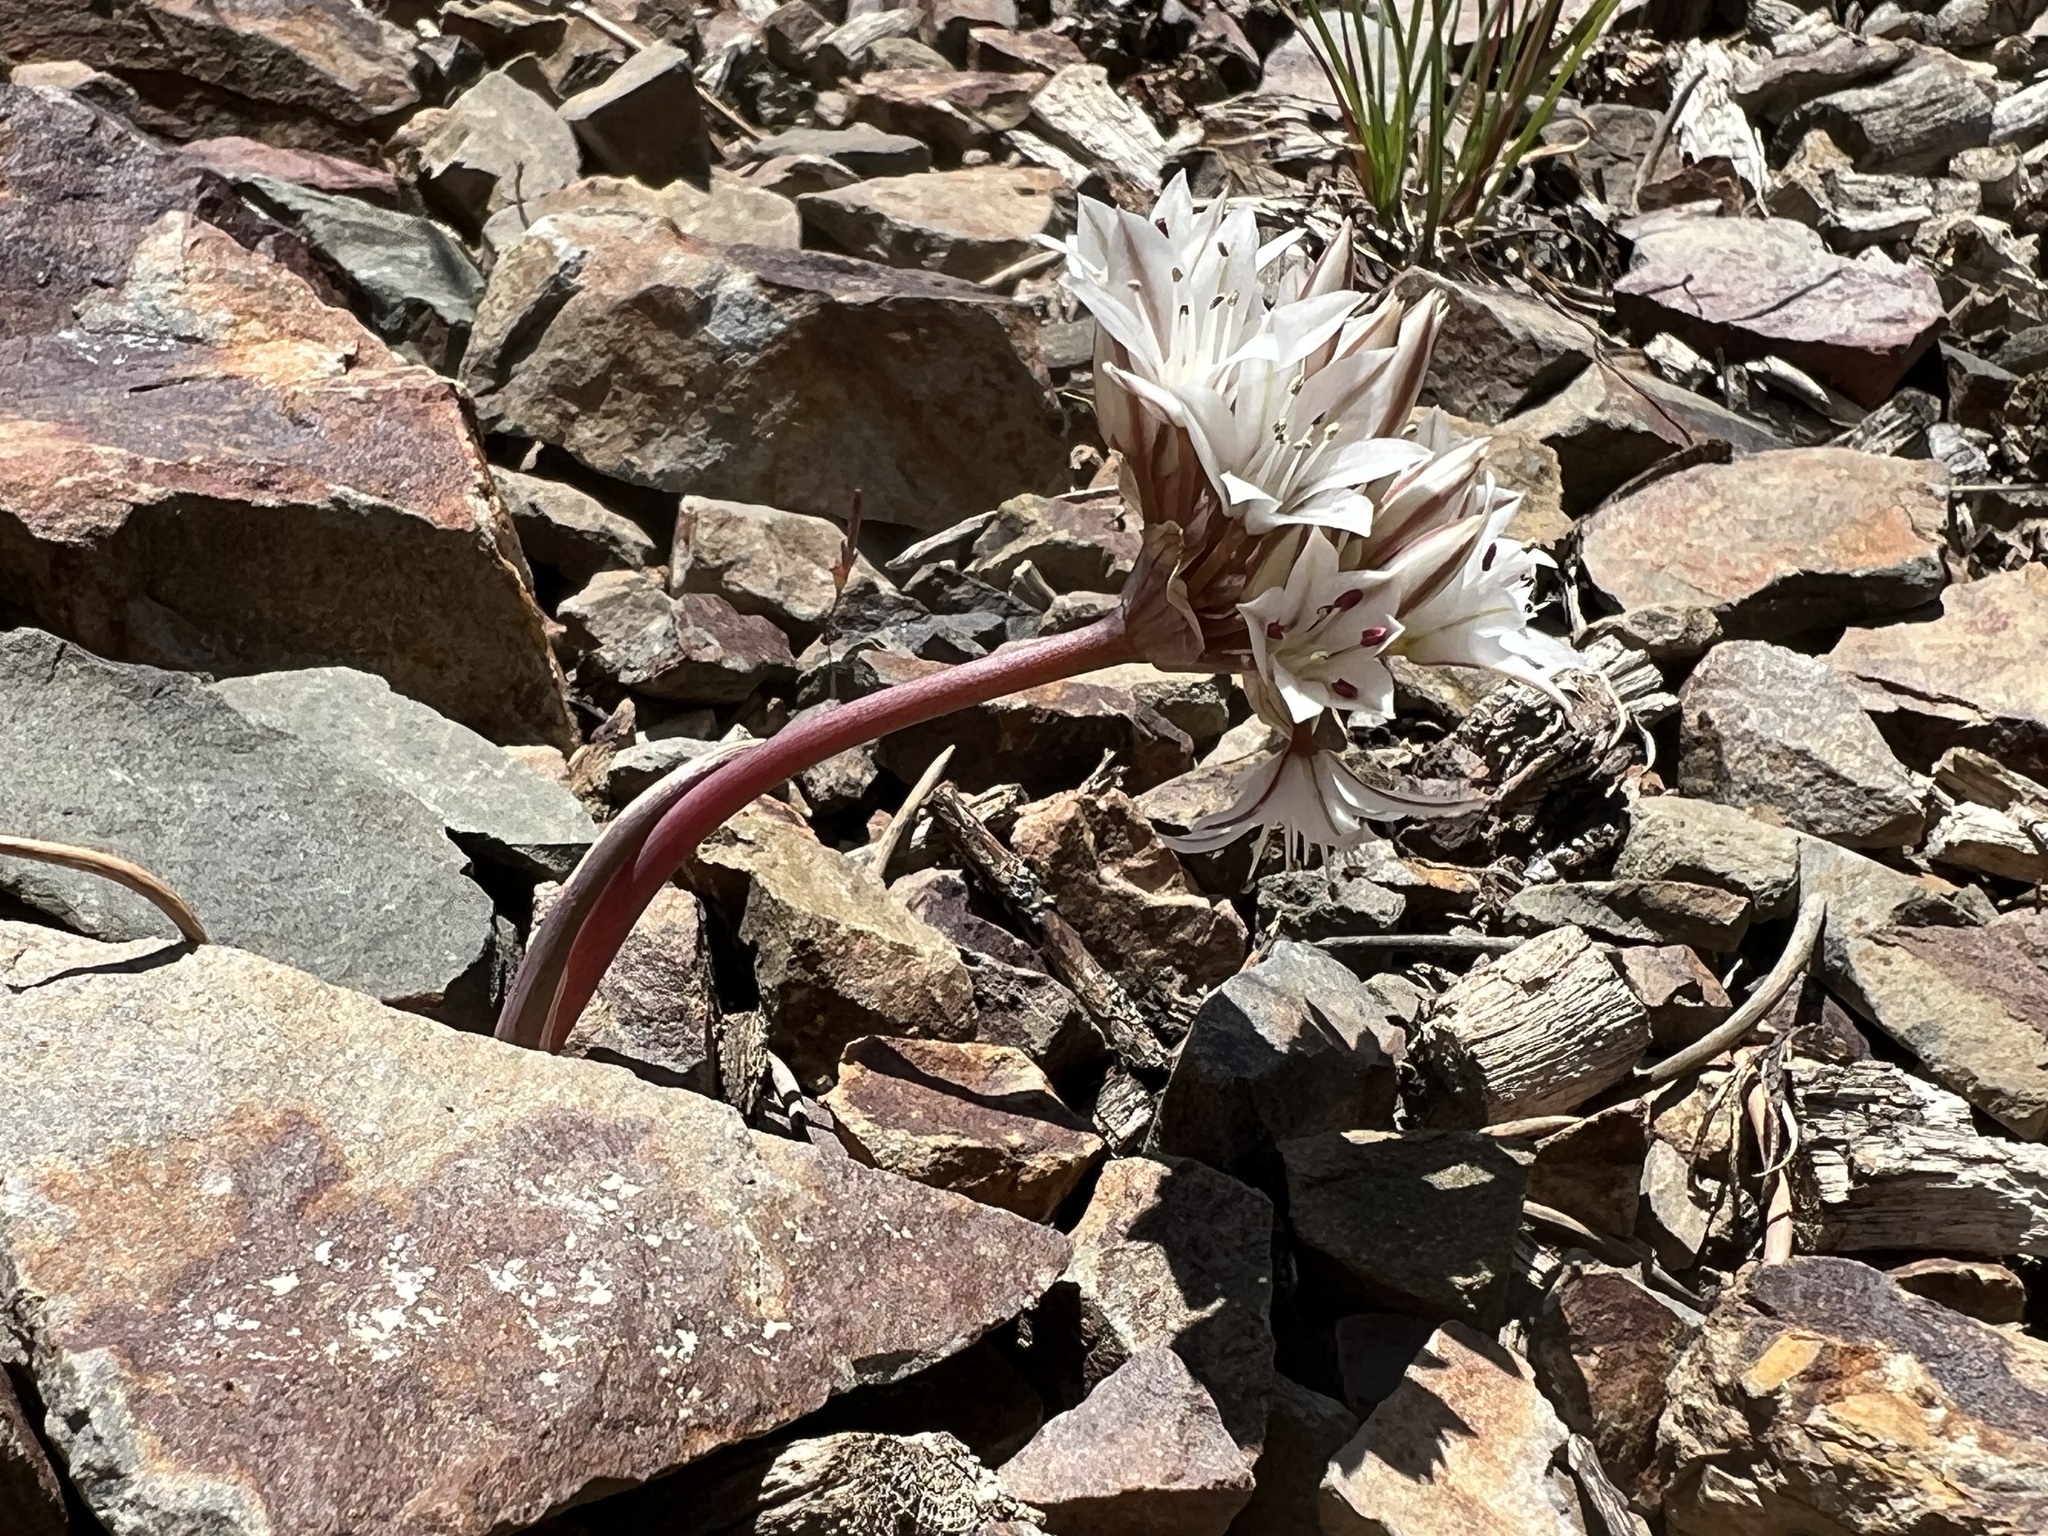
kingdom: Plantae
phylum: Tracheophyta
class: Liliopsida
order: Asparagales
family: Amaryllidaceae
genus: Allium
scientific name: Allium atrorubens
